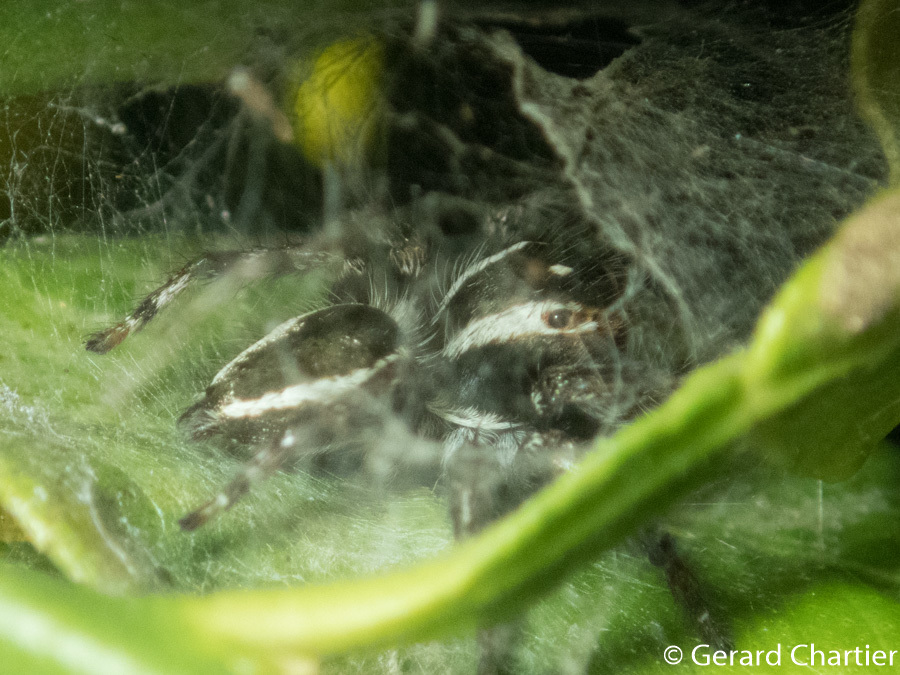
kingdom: Animalia
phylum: Arthropoda
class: Arachnida
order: Araneae
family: Salticidae
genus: Carrhotus
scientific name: Carrhotus viduus
